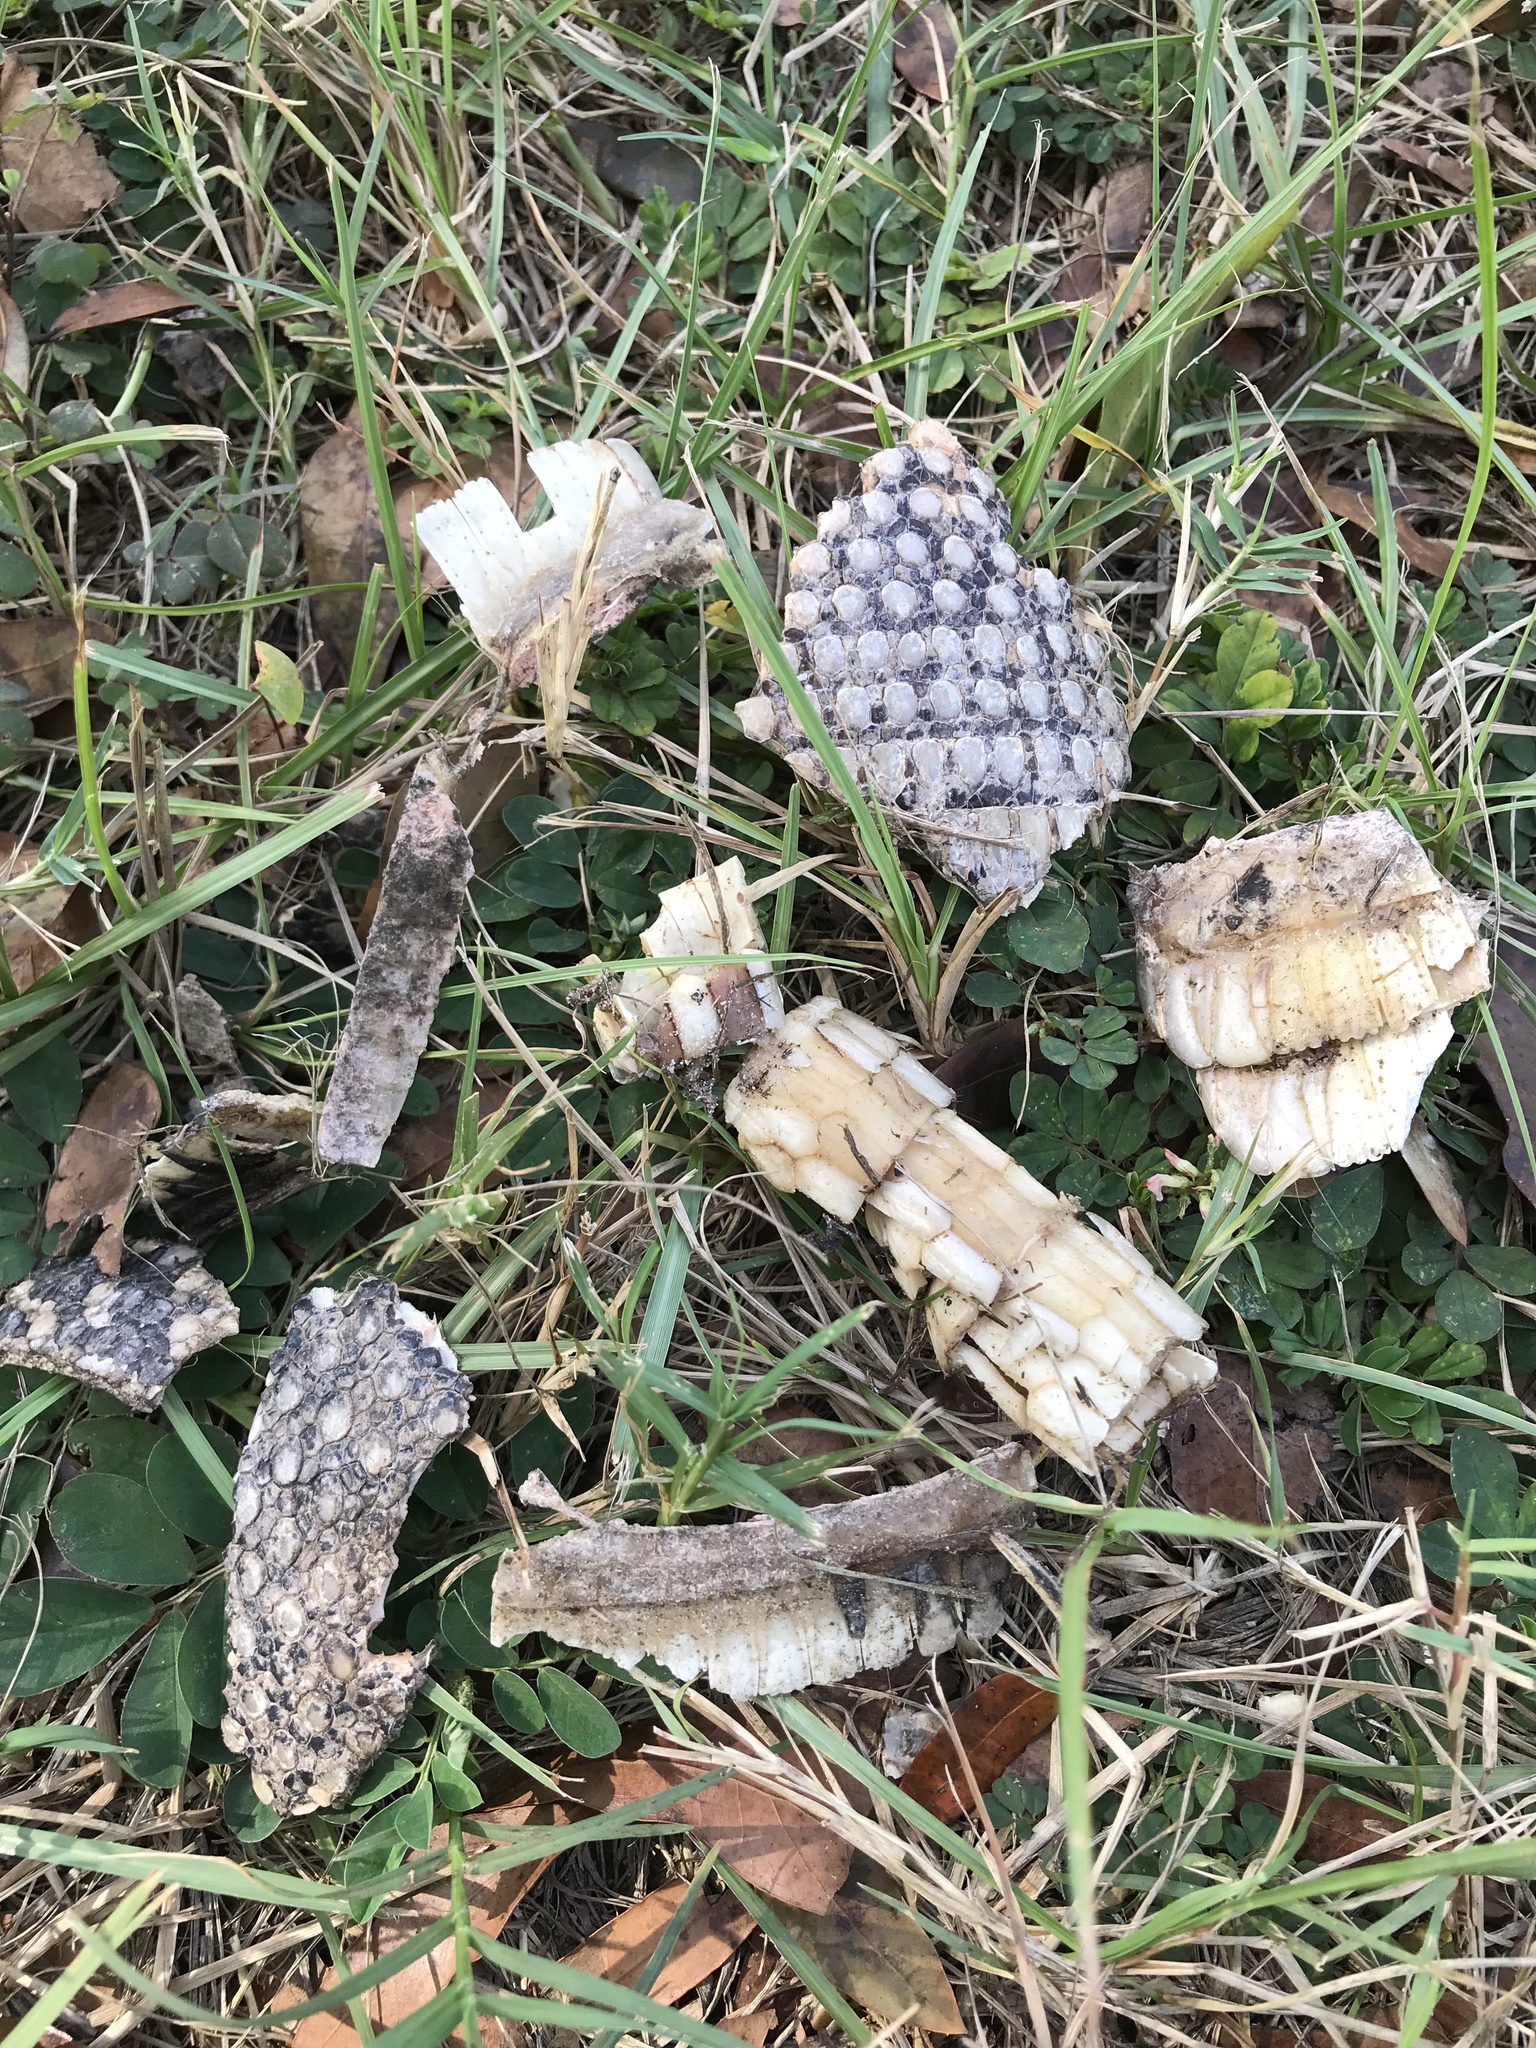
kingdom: Animalia
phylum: Chordata
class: Mammalia
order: Cingulata
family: Dasypodidae
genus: Dasypus
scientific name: Dasypus novemcinctus
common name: Nine-banded armadillo
